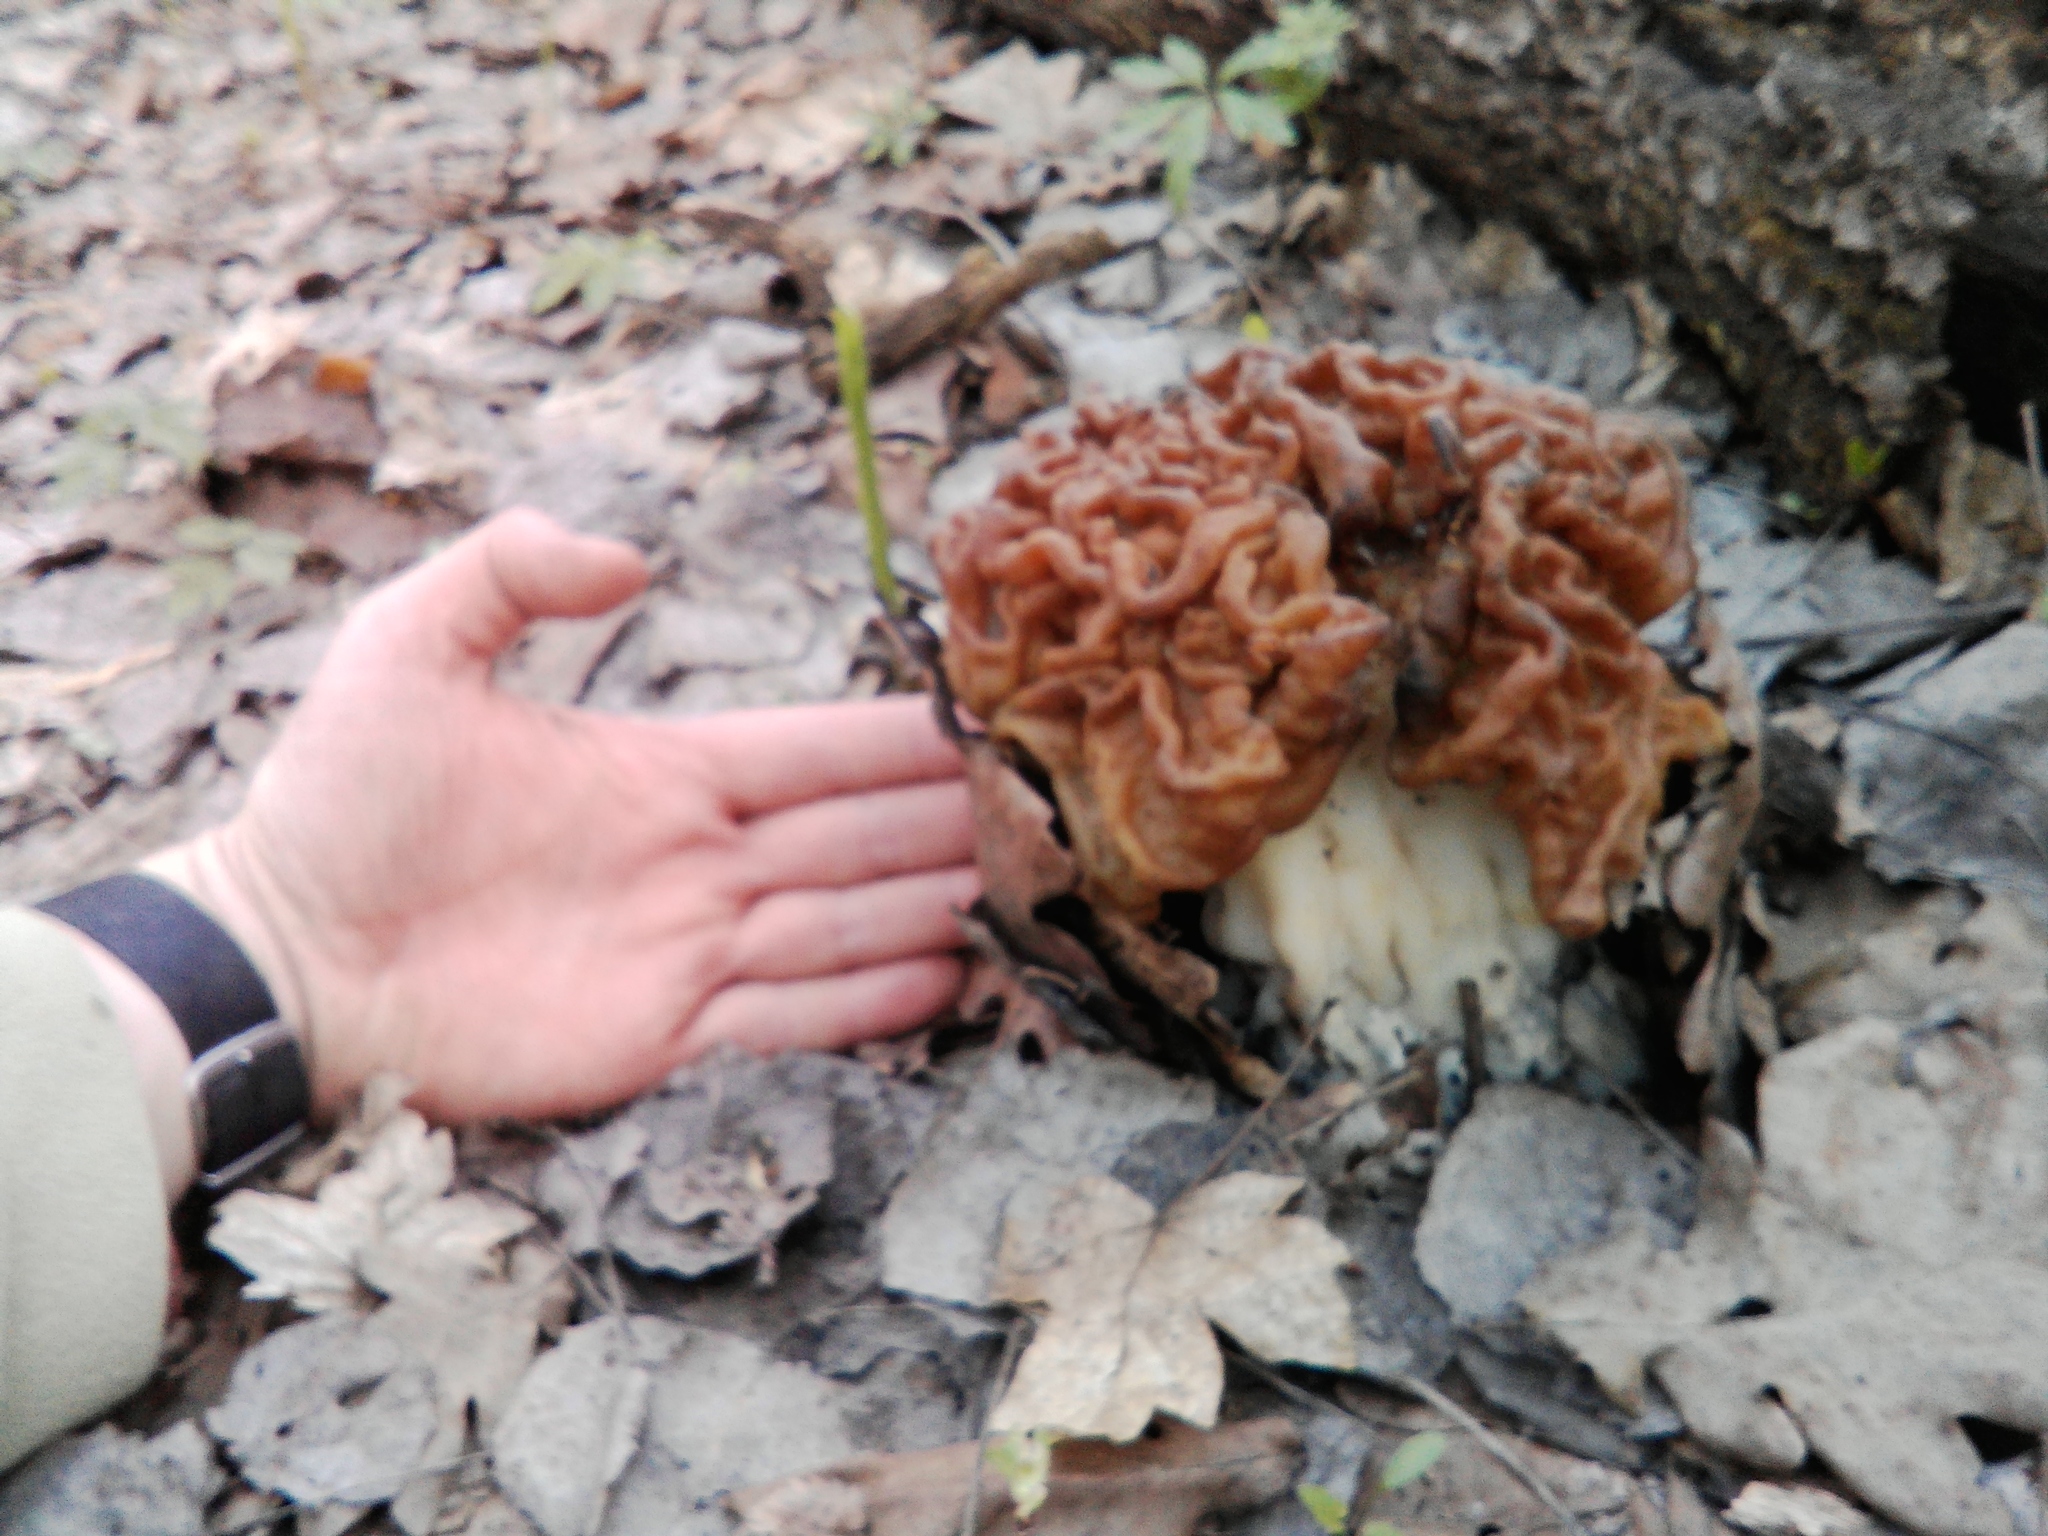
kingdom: Fungi
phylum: Ascomycota
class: Pezizomycetes
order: Pezizales
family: Discinaceae
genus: Gyromitra
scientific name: Gyromitra gigas
